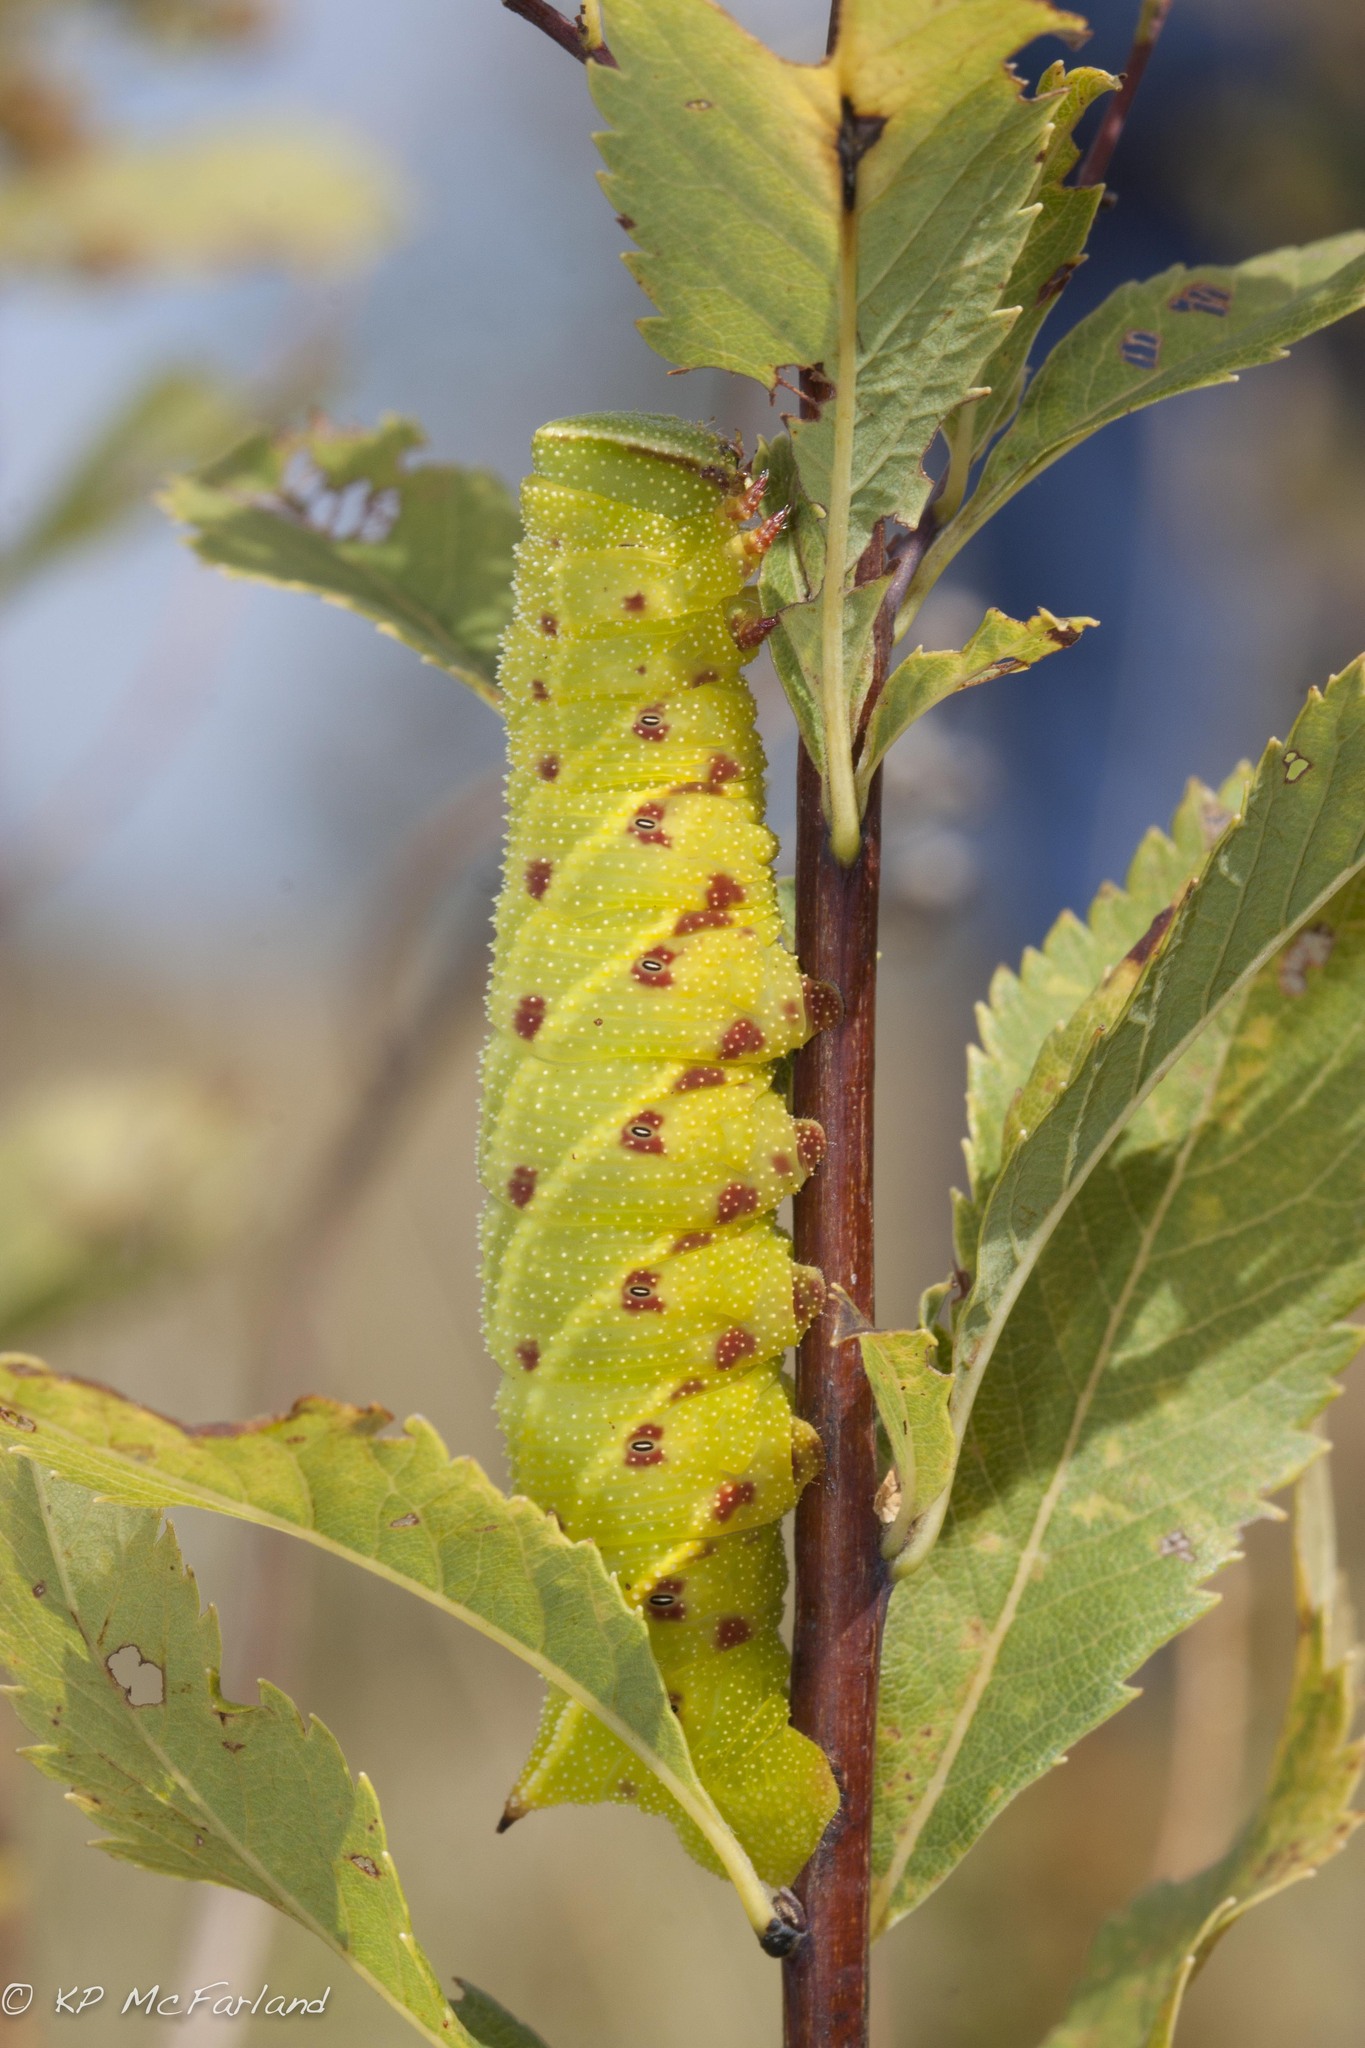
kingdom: Animalia
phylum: Arthropoda
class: Insecta
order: Lepidoptera
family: Sphingidae
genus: Paonias
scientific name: Paonias excaecata
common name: Blind-eyed sphinx
